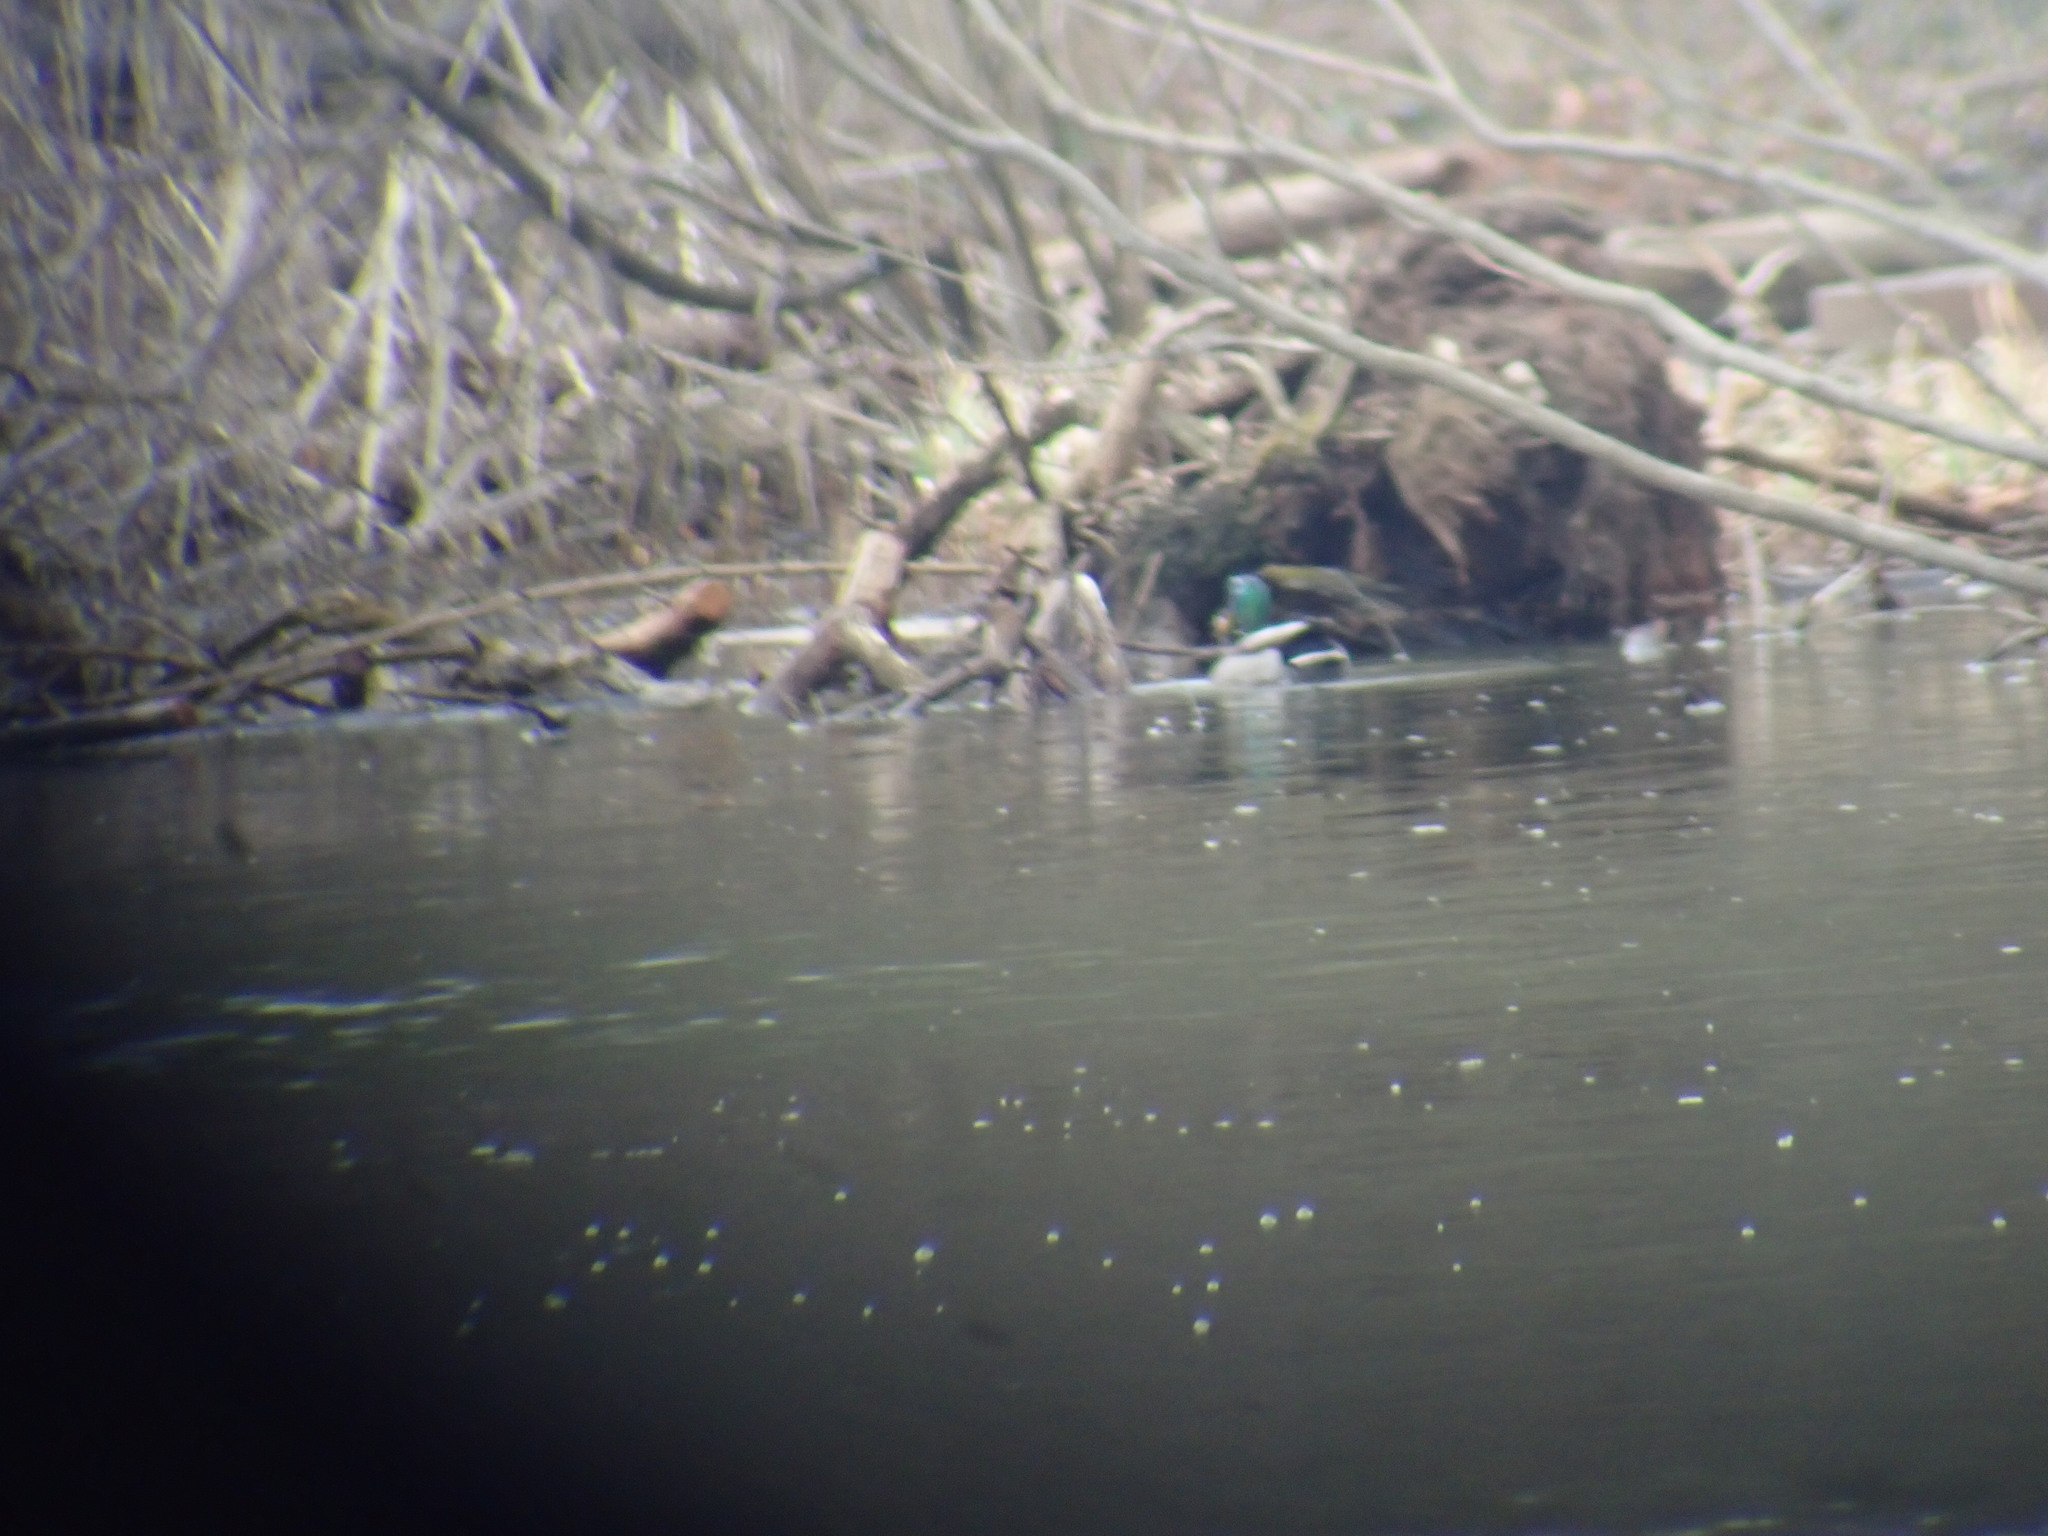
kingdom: Animalia
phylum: Chordata
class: Aves
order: Anseriformes
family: Anatidae
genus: Anas
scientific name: Anas platyrhynchos
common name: Mallard
